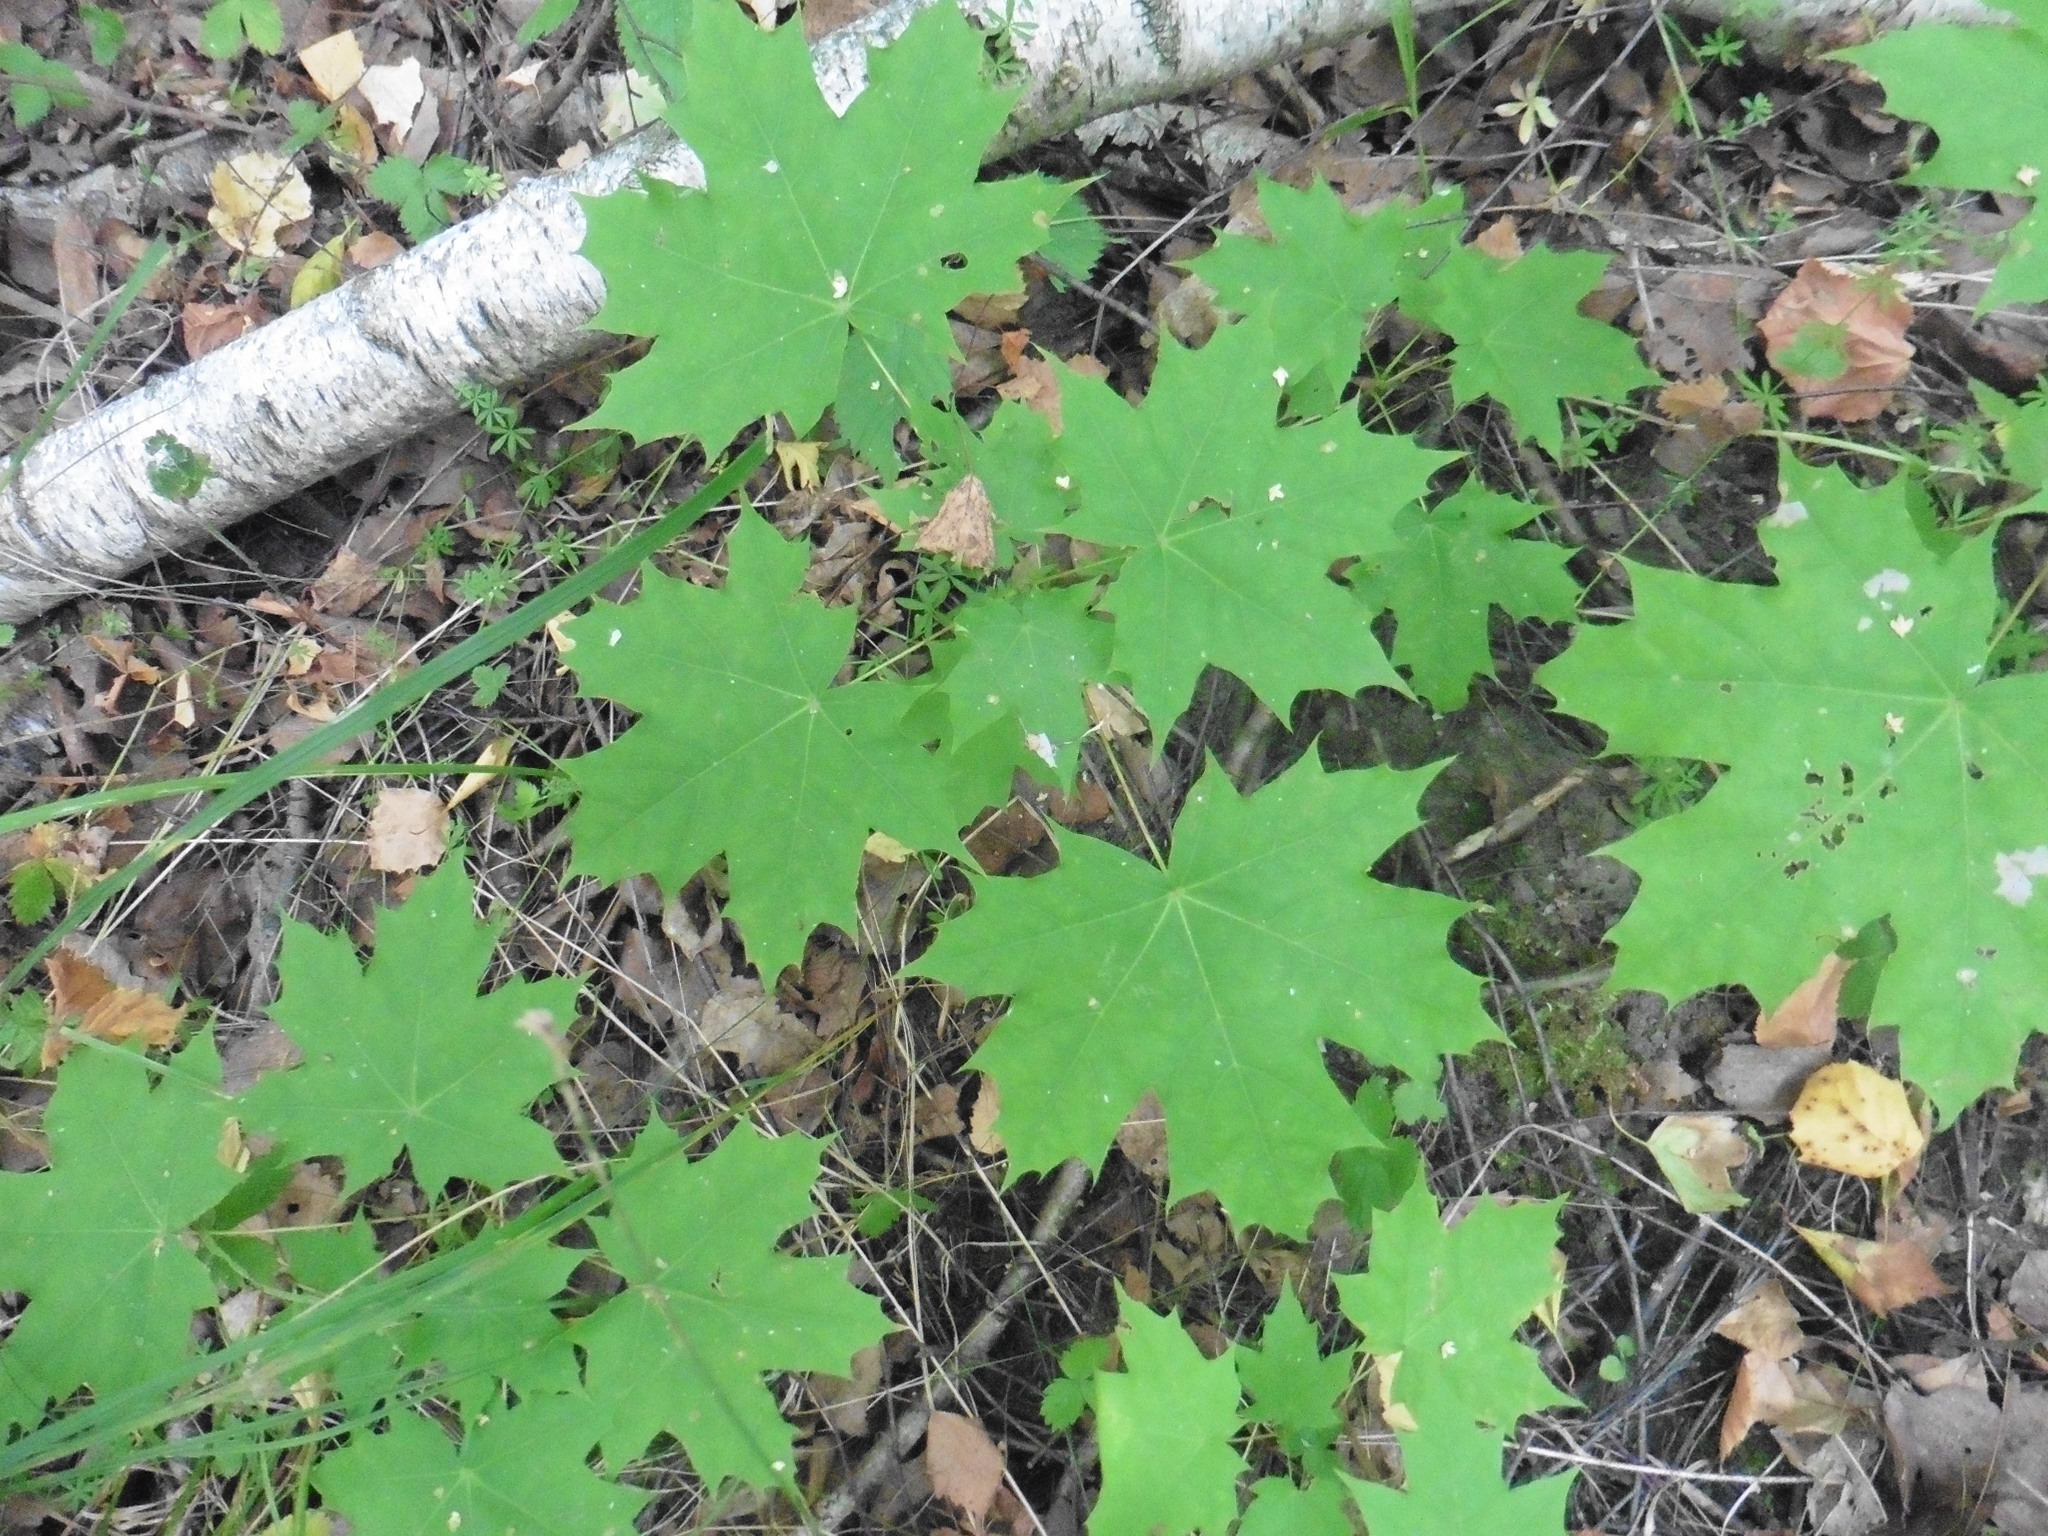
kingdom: Plantae
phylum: Tracheophyta
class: Magnoliopsida
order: Sapindales
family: Sapindaceae
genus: Acer
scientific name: Acer platanoides
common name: Norway maple
